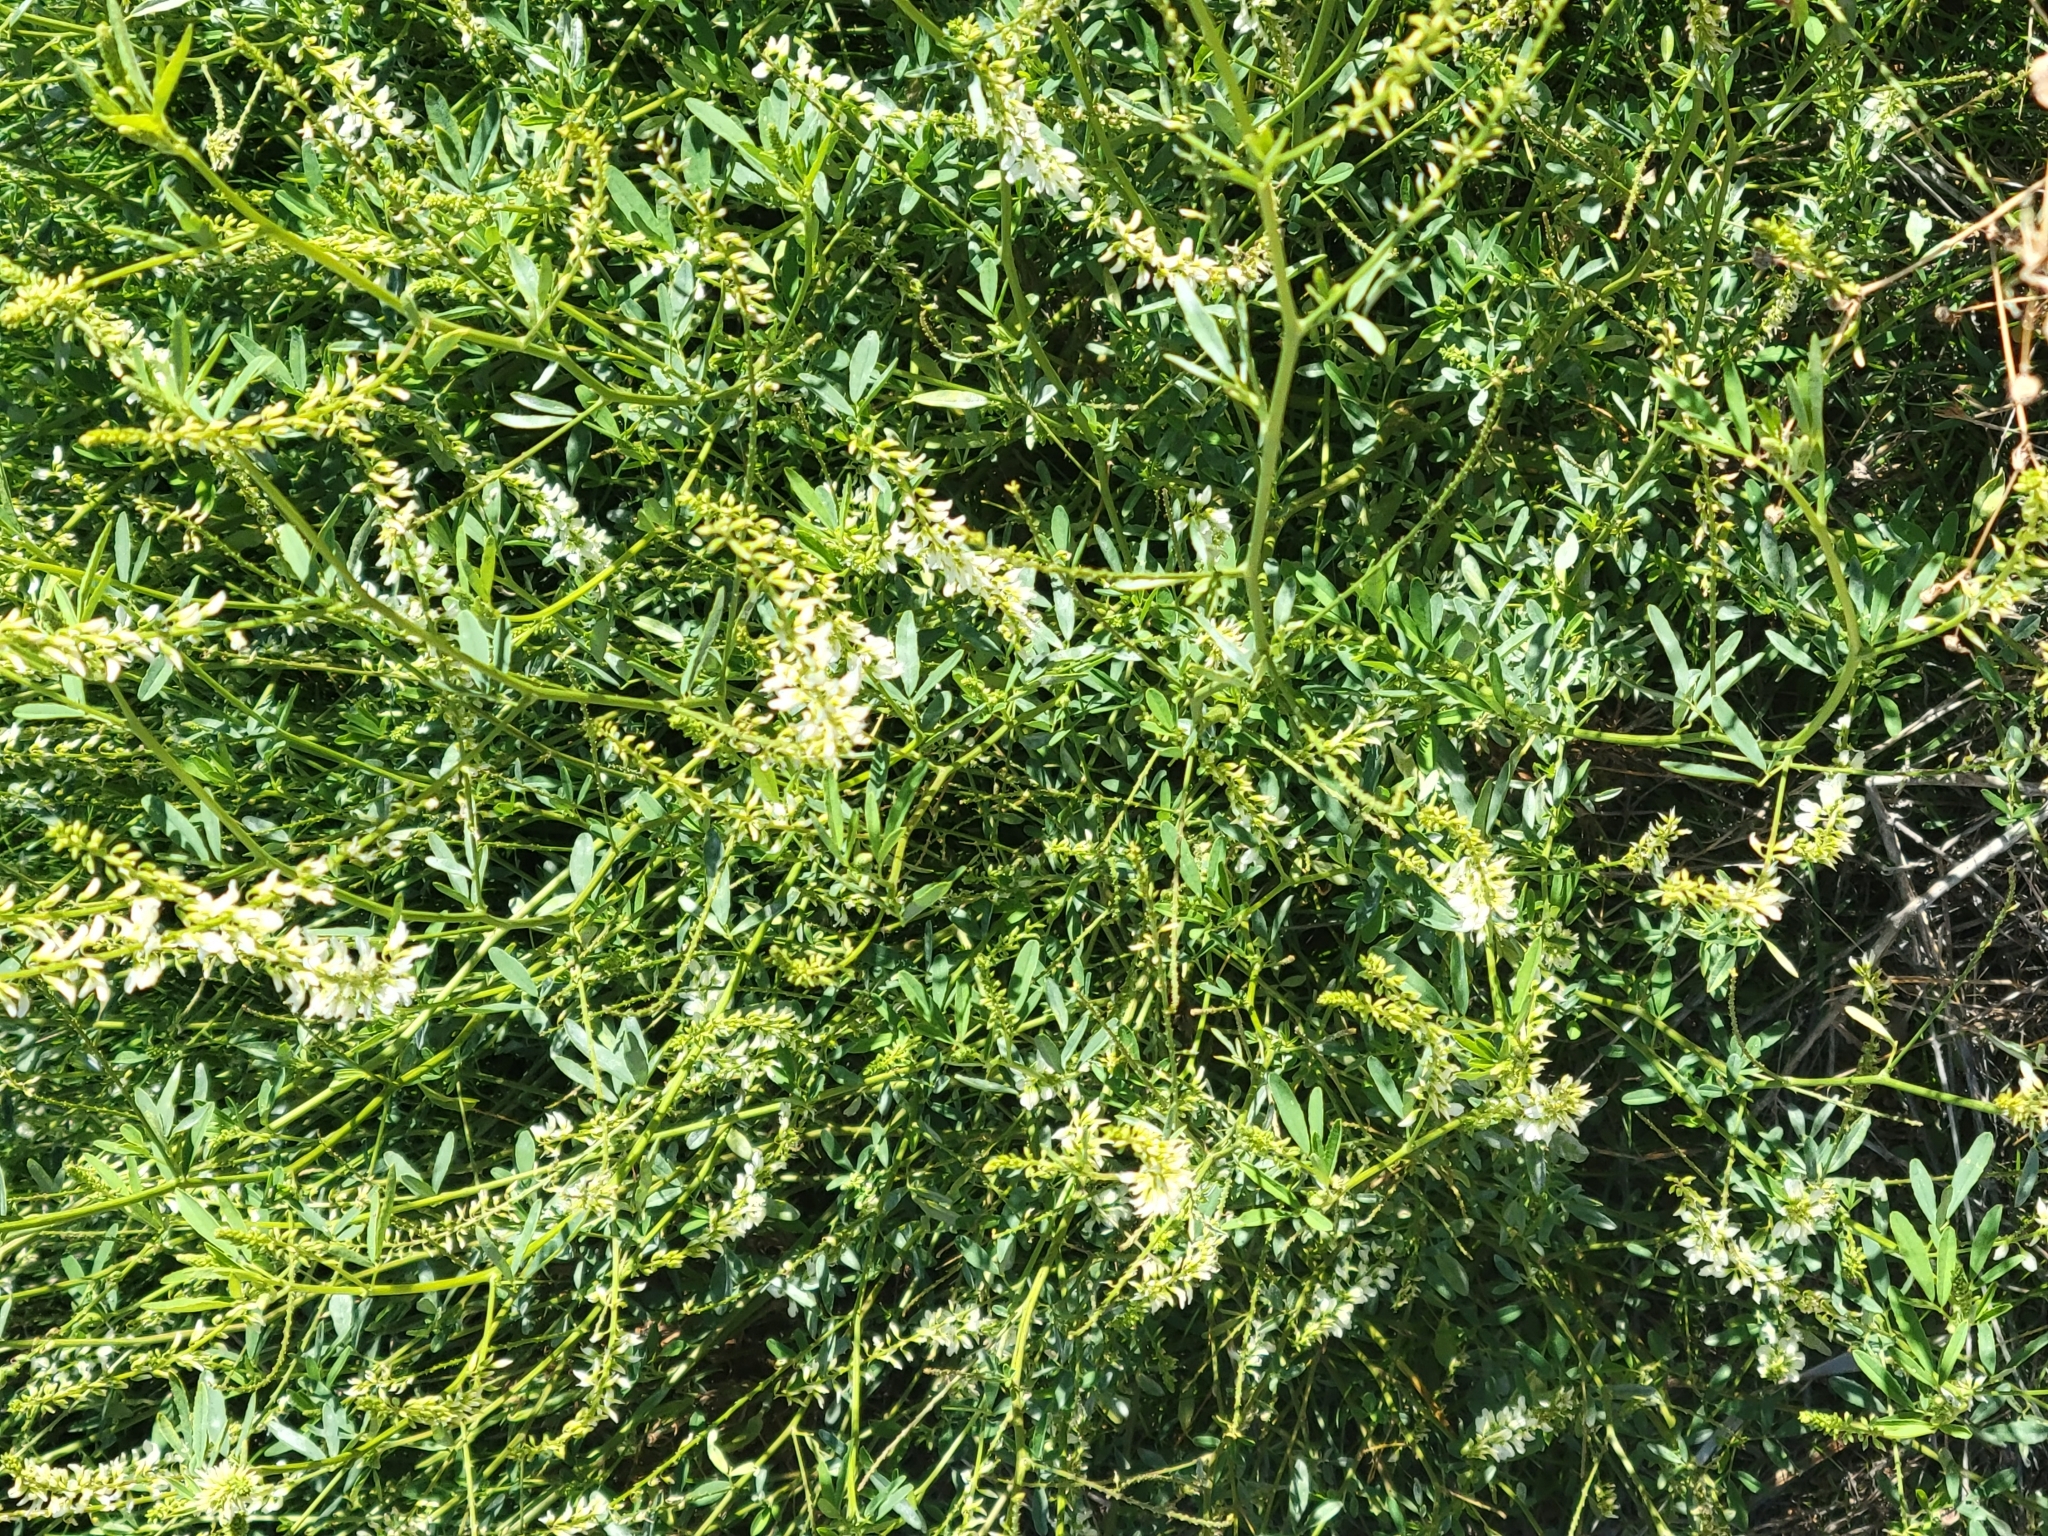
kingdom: Plantae
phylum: Tracheophyta
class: Magnoliopsida
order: Fabales
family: Fabaceae
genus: Melilotus
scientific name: Melilotus albus
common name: White melilot
